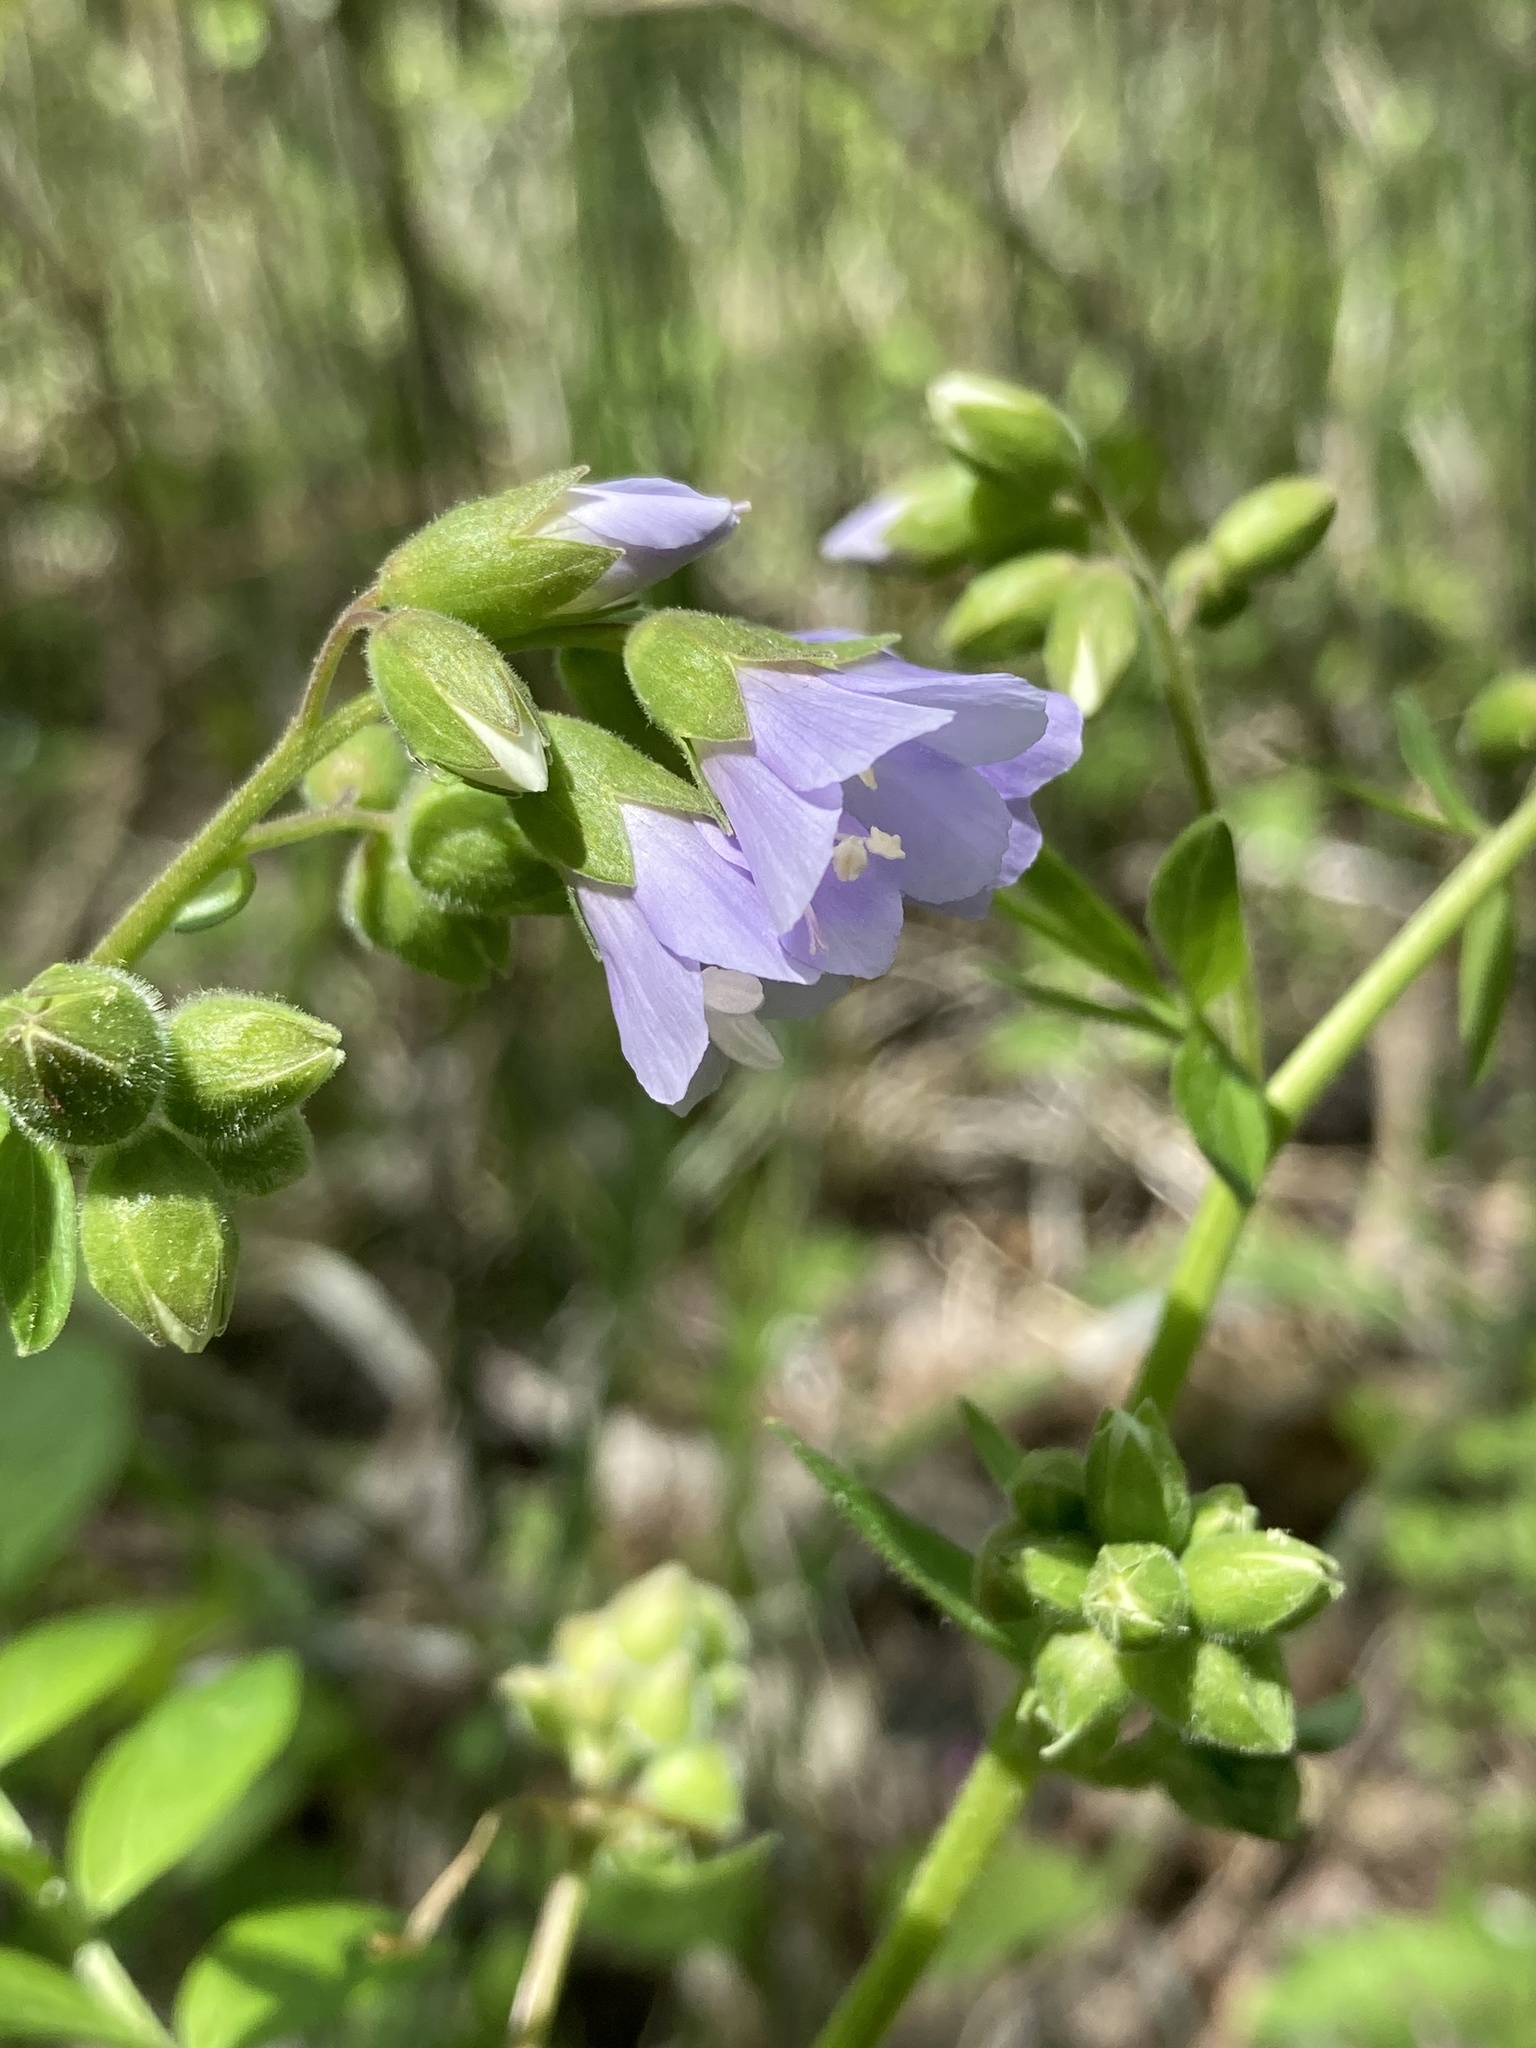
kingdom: Plantae
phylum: Tracheophyta
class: Magnoliopsida
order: Ericales
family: Polemoniaceae
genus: Polemonium
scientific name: Polemonium reptans
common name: Creeping jacob's-ladder
